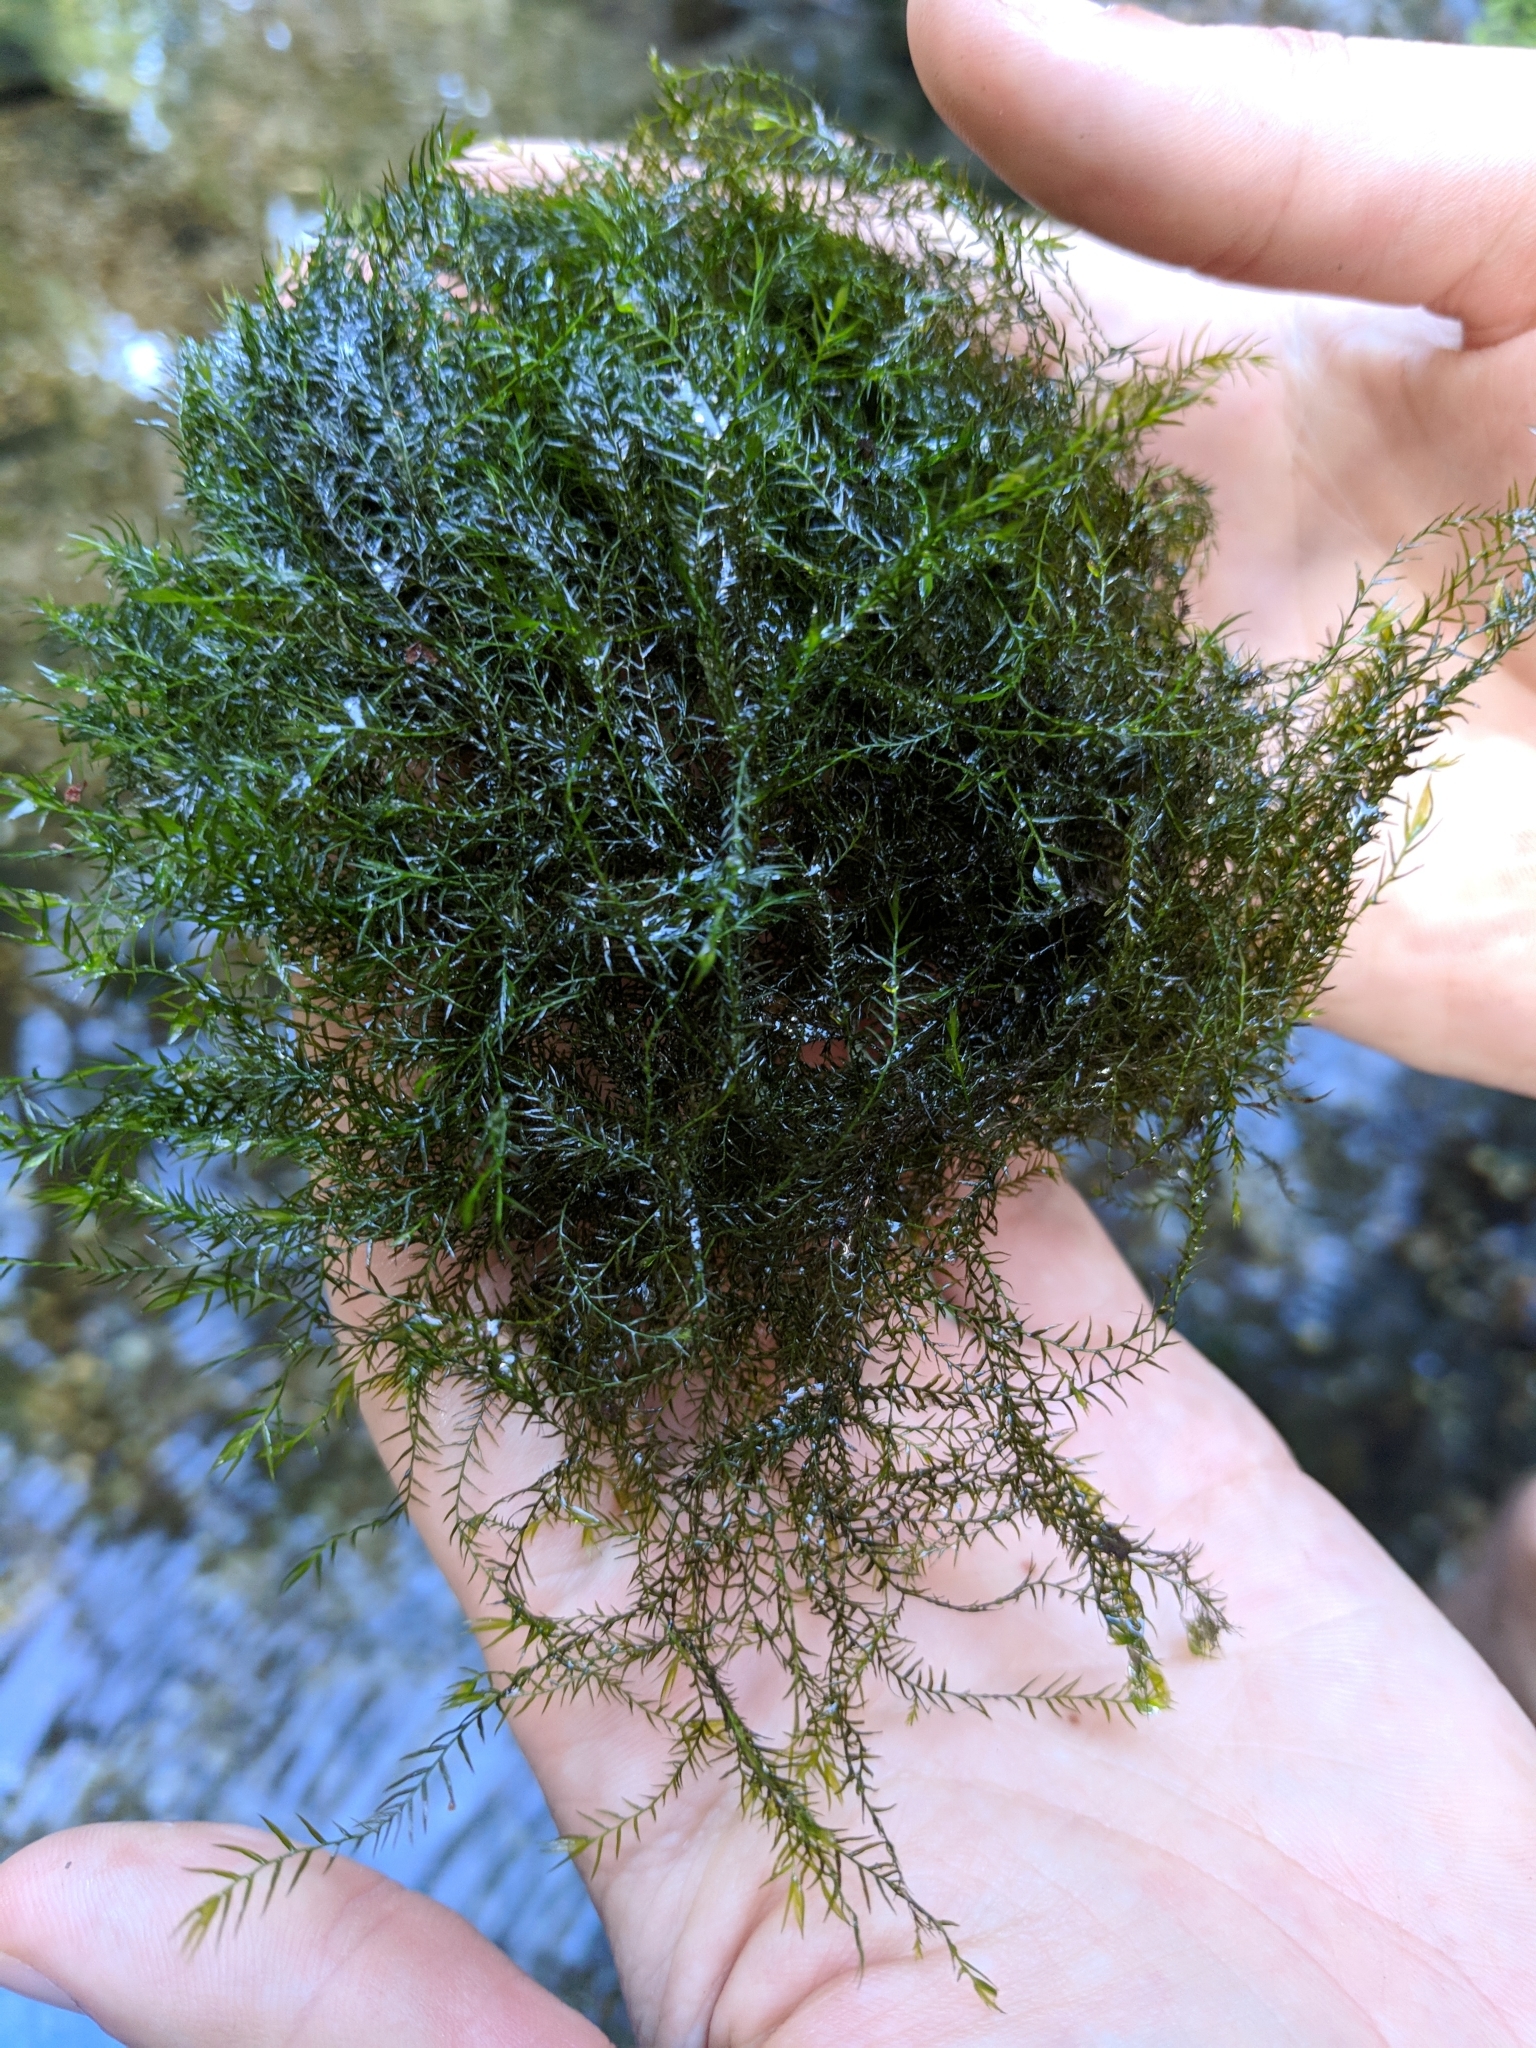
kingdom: Plantae
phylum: Bryophyta
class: Bryopsida
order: Dicranales
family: Fissidentaceae
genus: Fissidens
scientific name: Fissidens fontanus
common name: Fountain pocket-moss
